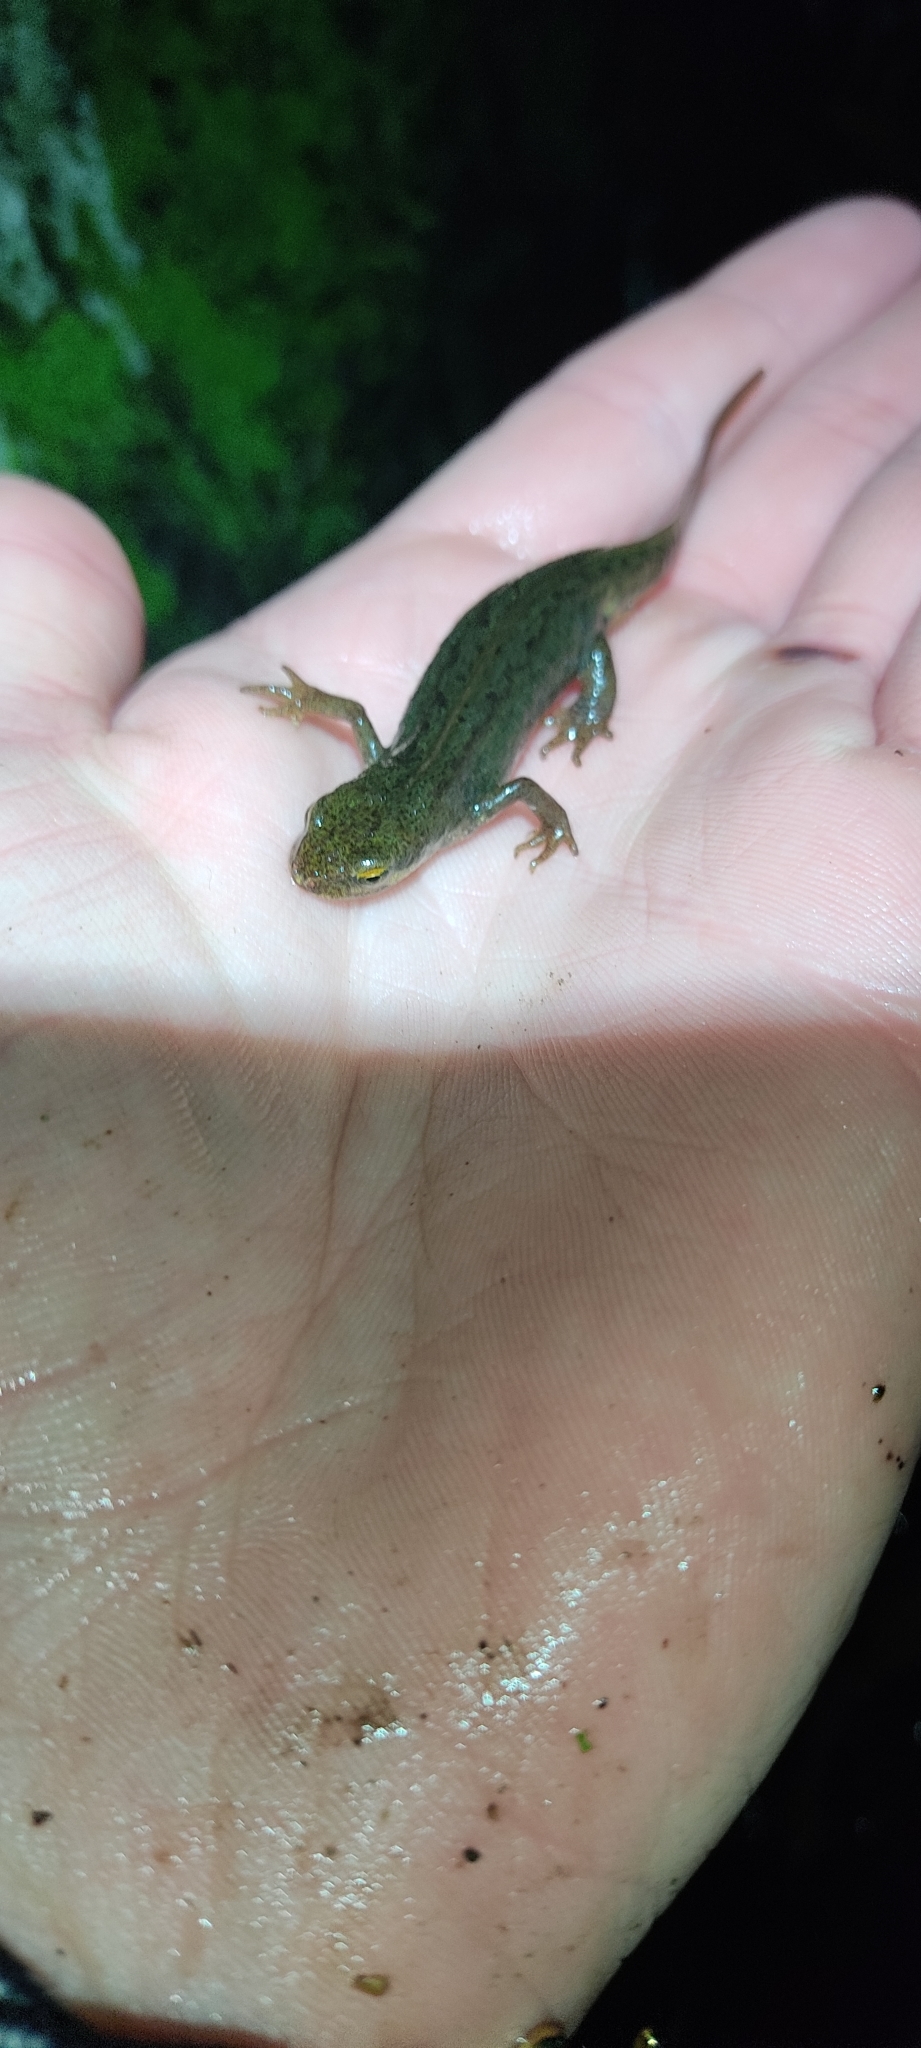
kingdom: Animalia
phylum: Chordata
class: Amphibia
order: Caudata
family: Salamandridae
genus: Lissotriton
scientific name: Lissotriton helveticus
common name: Palmate newt
